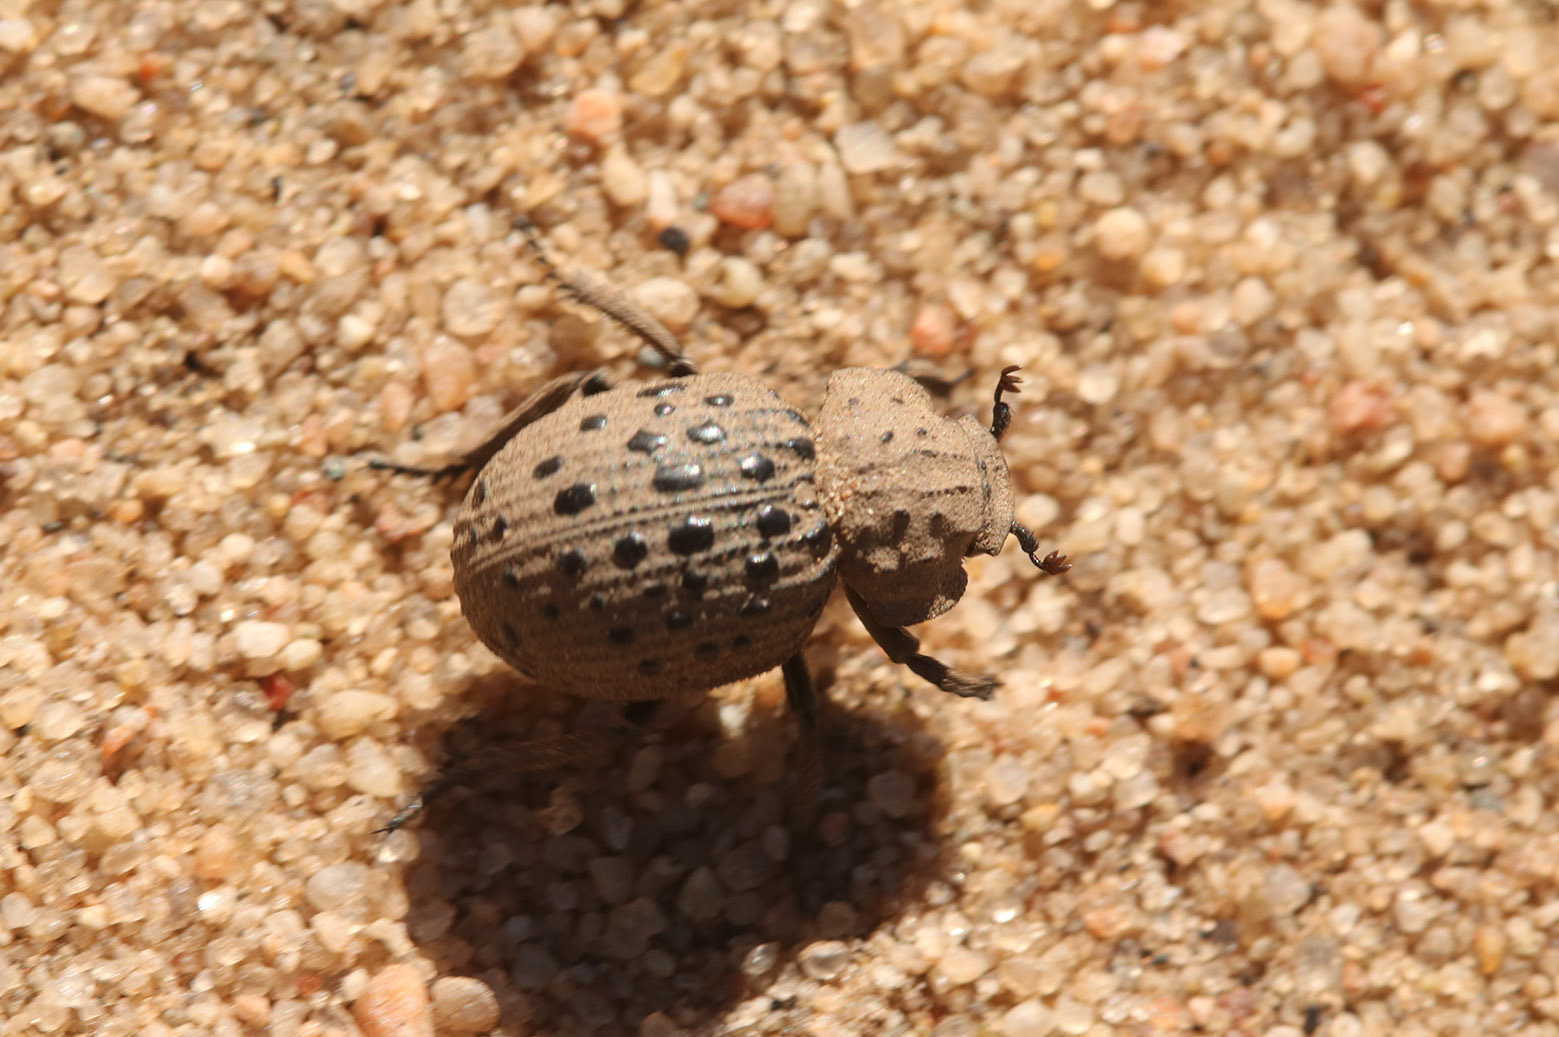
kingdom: Animalia
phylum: Arthropoda
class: Insecta
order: Coleoptera
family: Trogidae
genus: Omorgus
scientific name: Omorgus pastillarius
